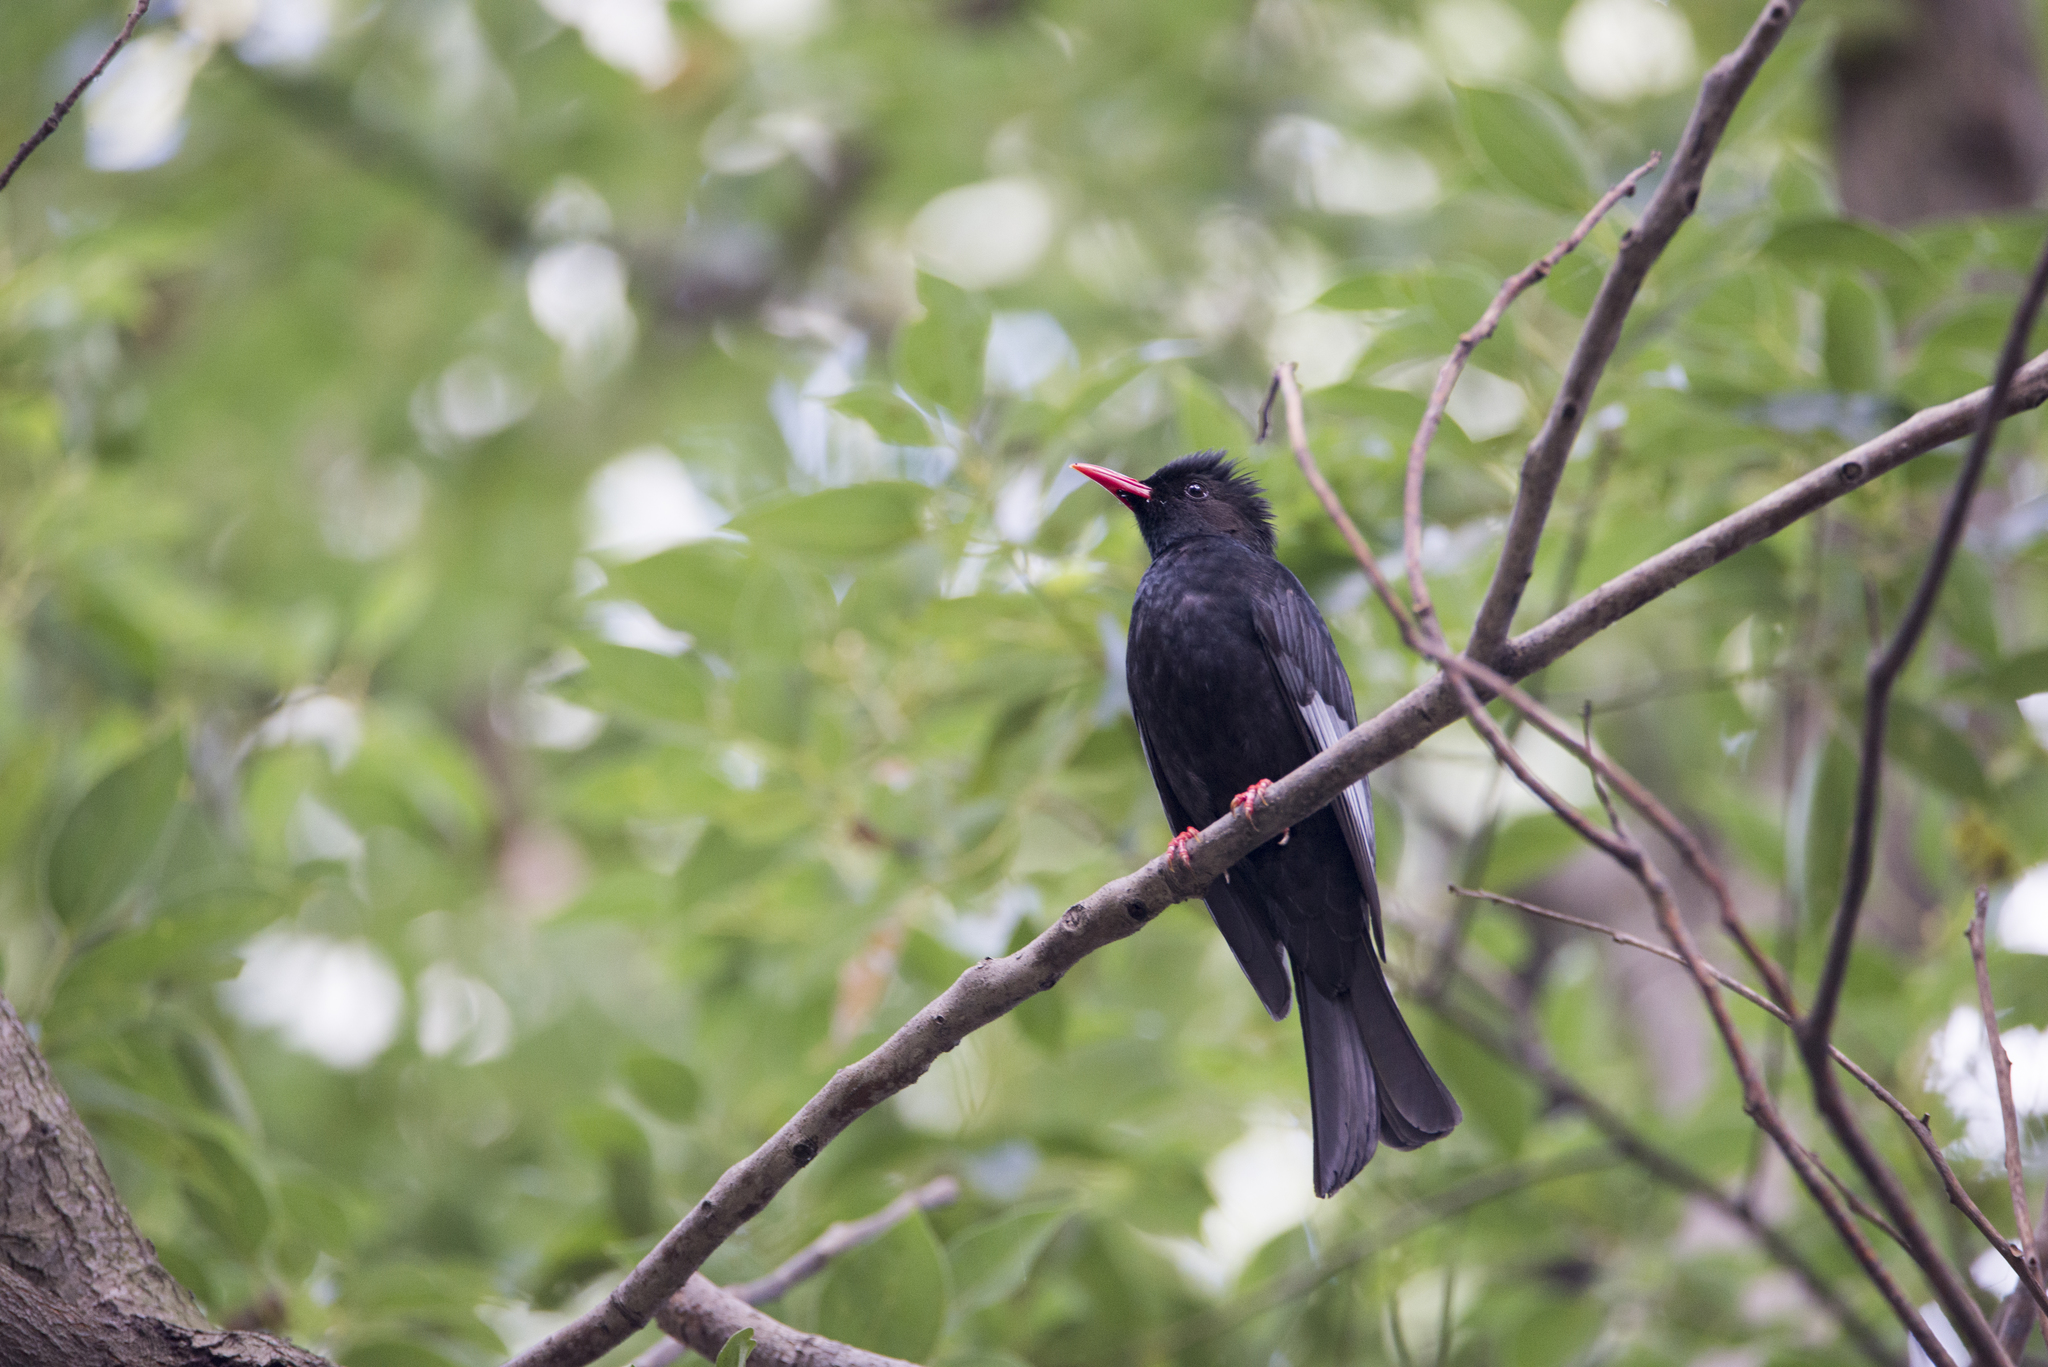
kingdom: Animalia
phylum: Chordata
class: Aves
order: Passeriformes
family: Pycnonotidae
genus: Hypsipetes
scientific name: Hypsipetes leucocephalus
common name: Black bulbul
